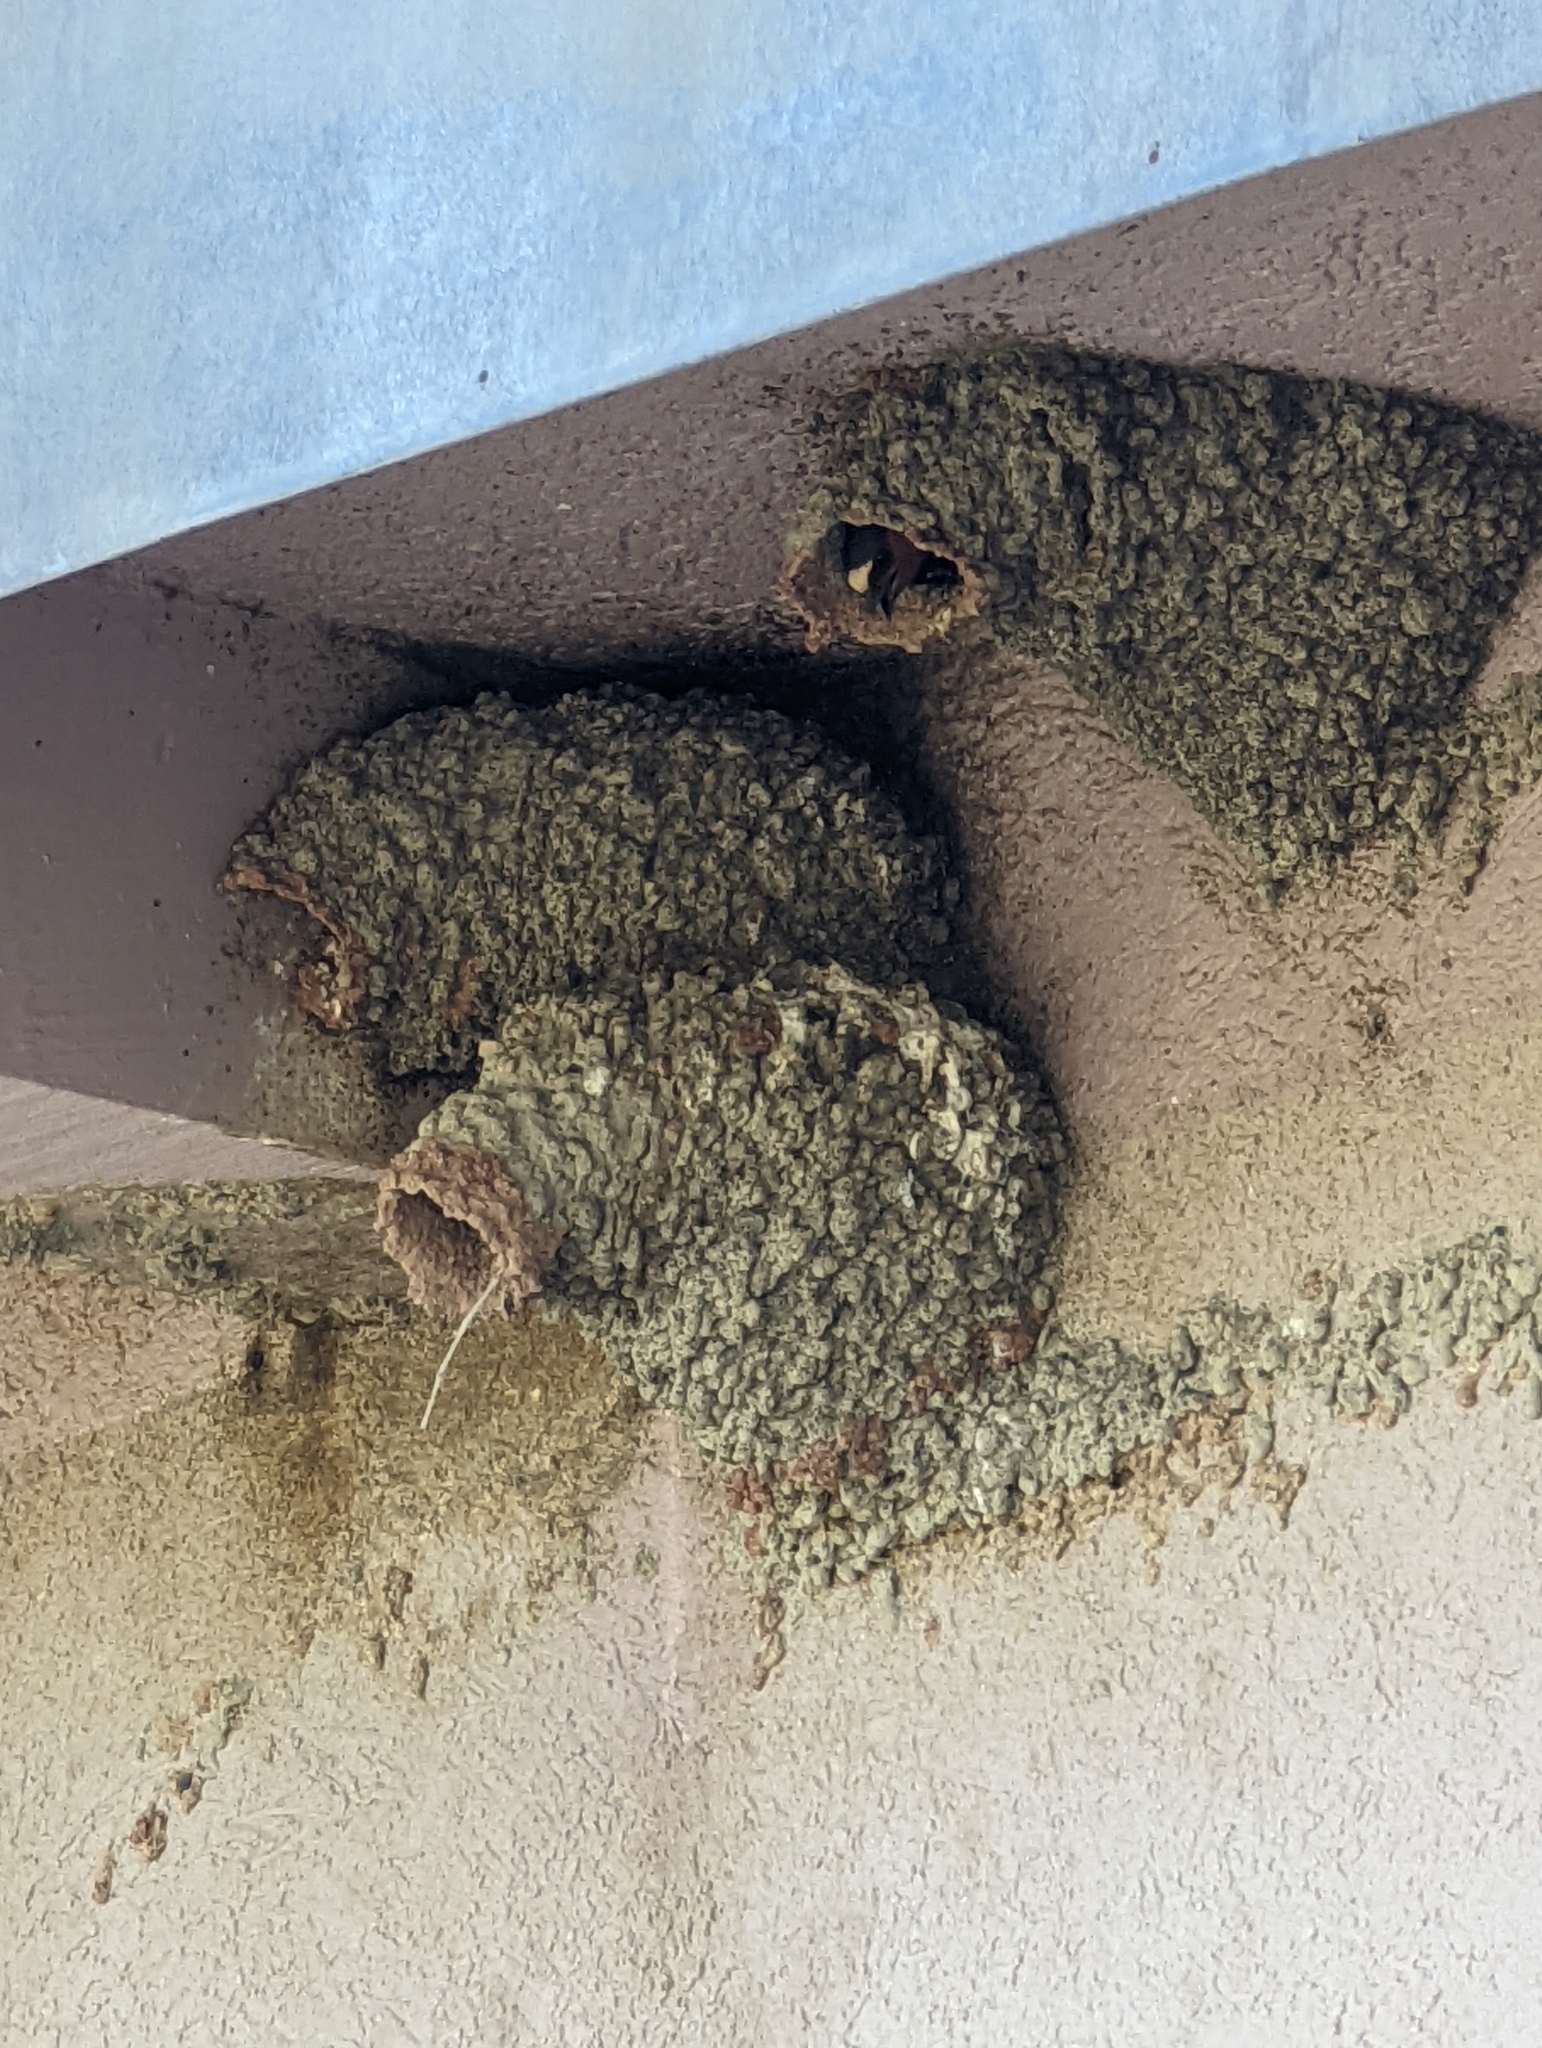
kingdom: Animalia
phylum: Chordata
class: Aves
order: Passeriformes
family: Hirundinidae
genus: Petrochelidon
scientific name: Petrochelidon pyrrhonota
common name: American cliff swallow
